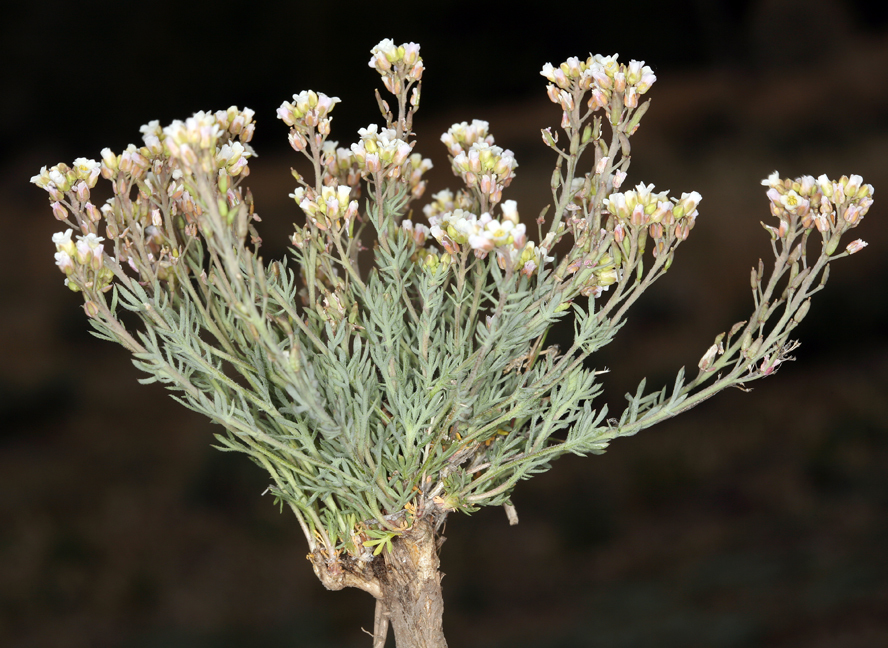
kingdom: Plantae
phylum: Tracheophyta
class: Magnoliopsida
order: Brassicales
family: Brassicaceae
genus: Polyctenium
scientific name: Polyctenium fremontii
